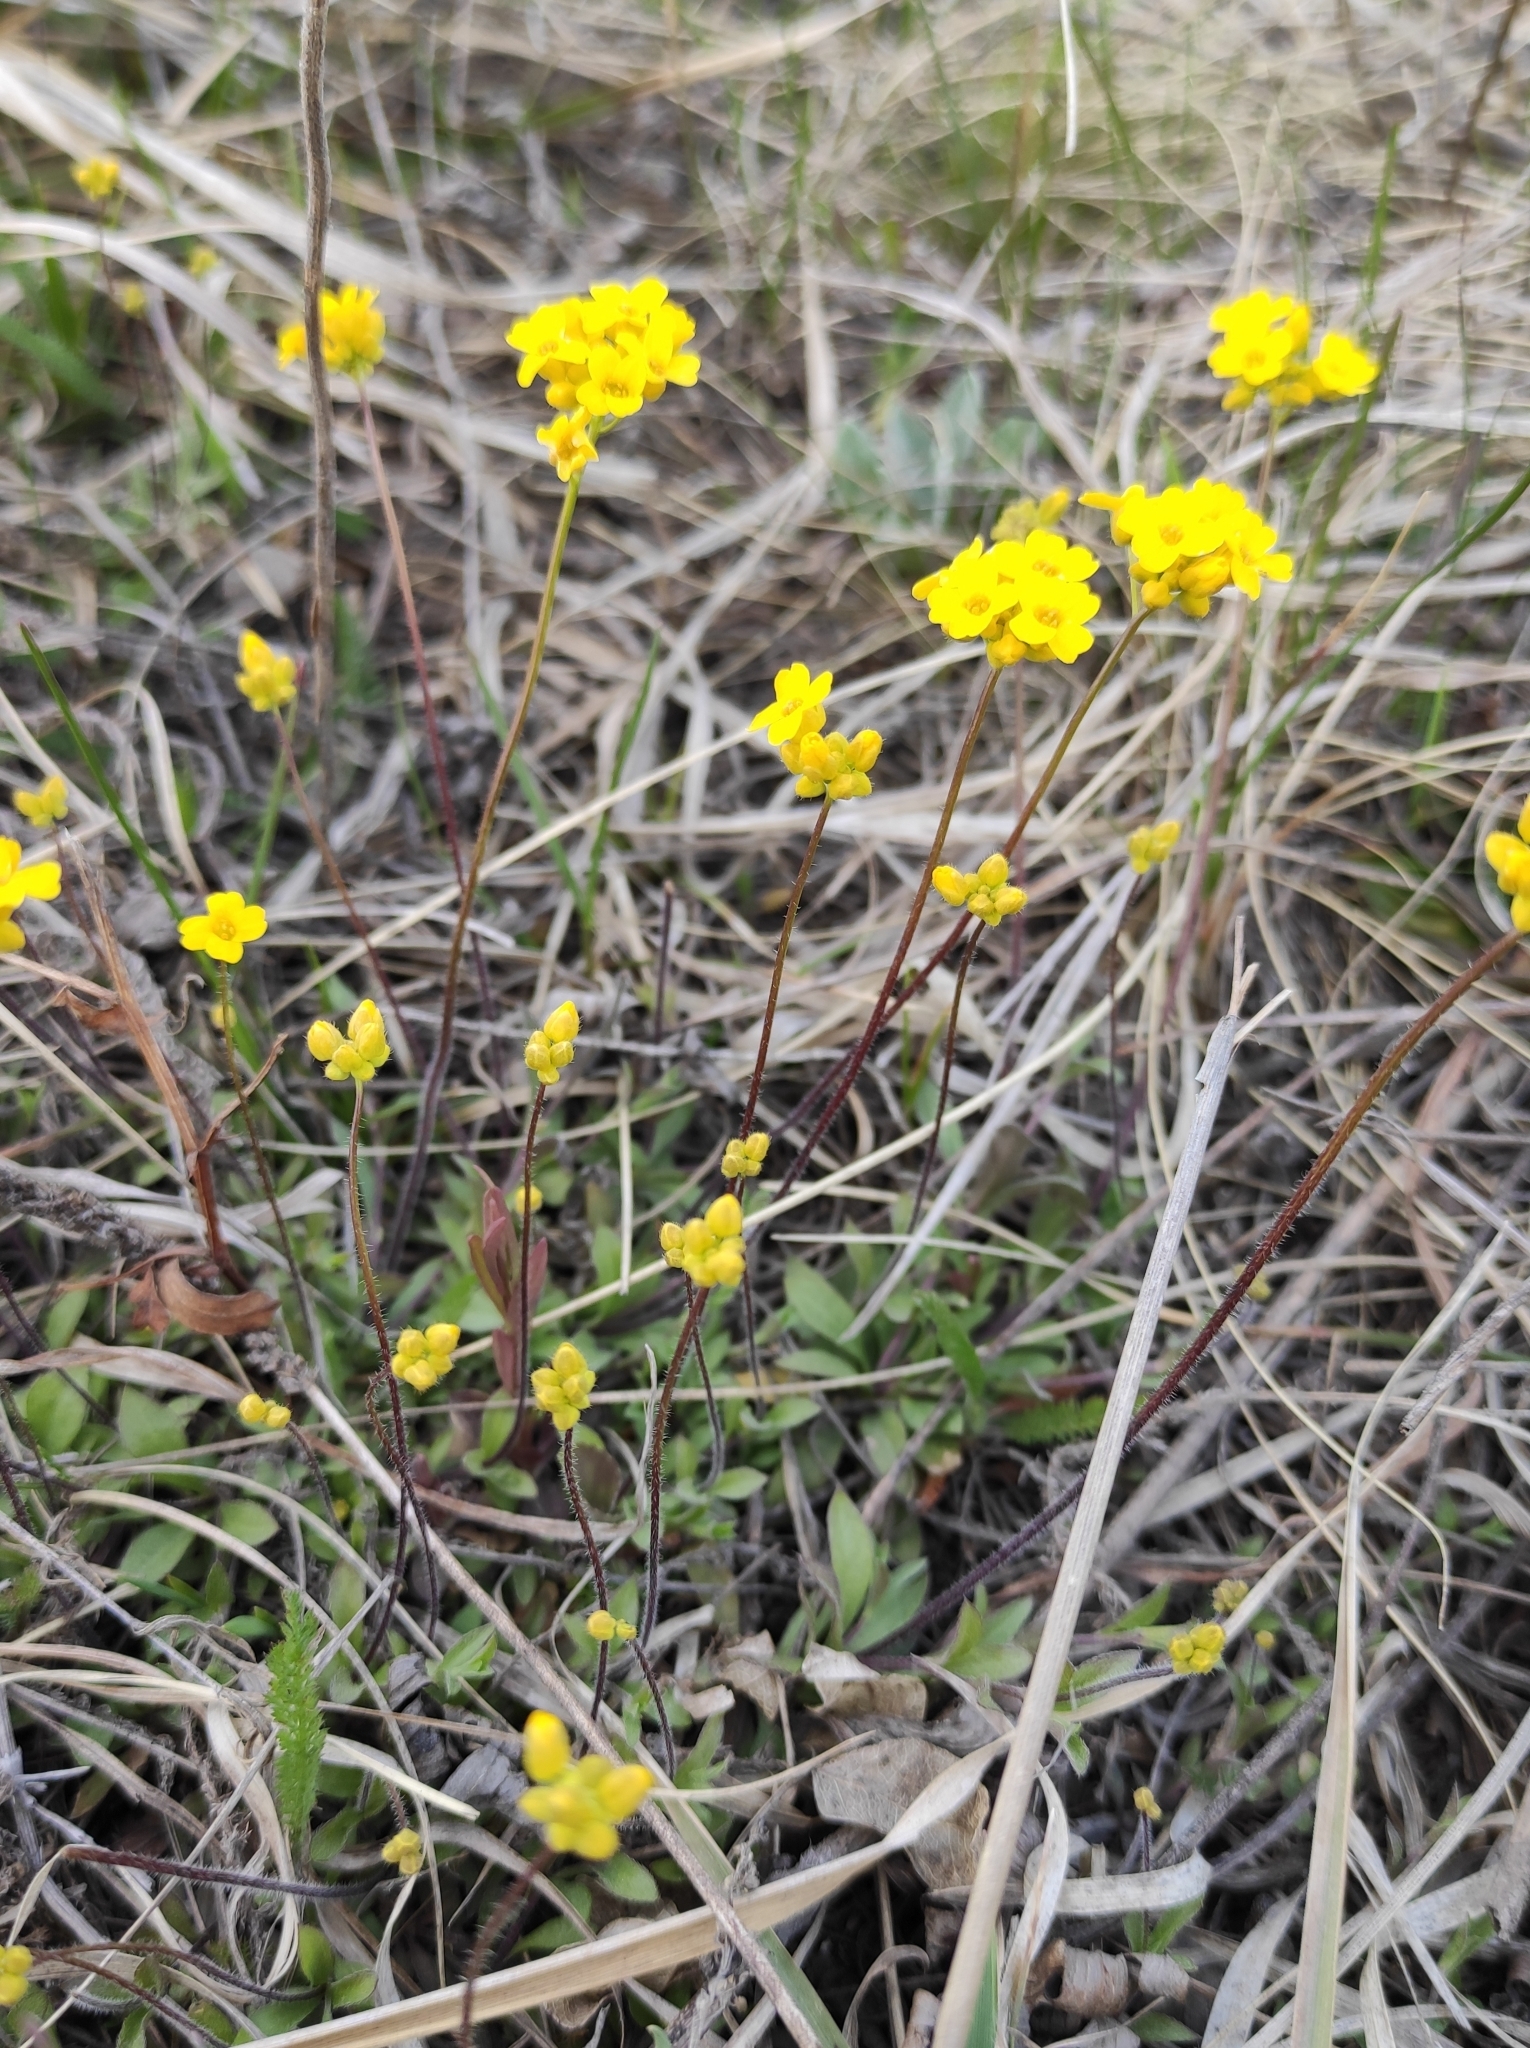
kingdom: Plantae
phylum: Tracheophyta
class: Magnoliopsida
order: Brassicales
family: Brassicaceae
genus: Draba
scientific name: Draba sibirica
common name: Siberian draba
